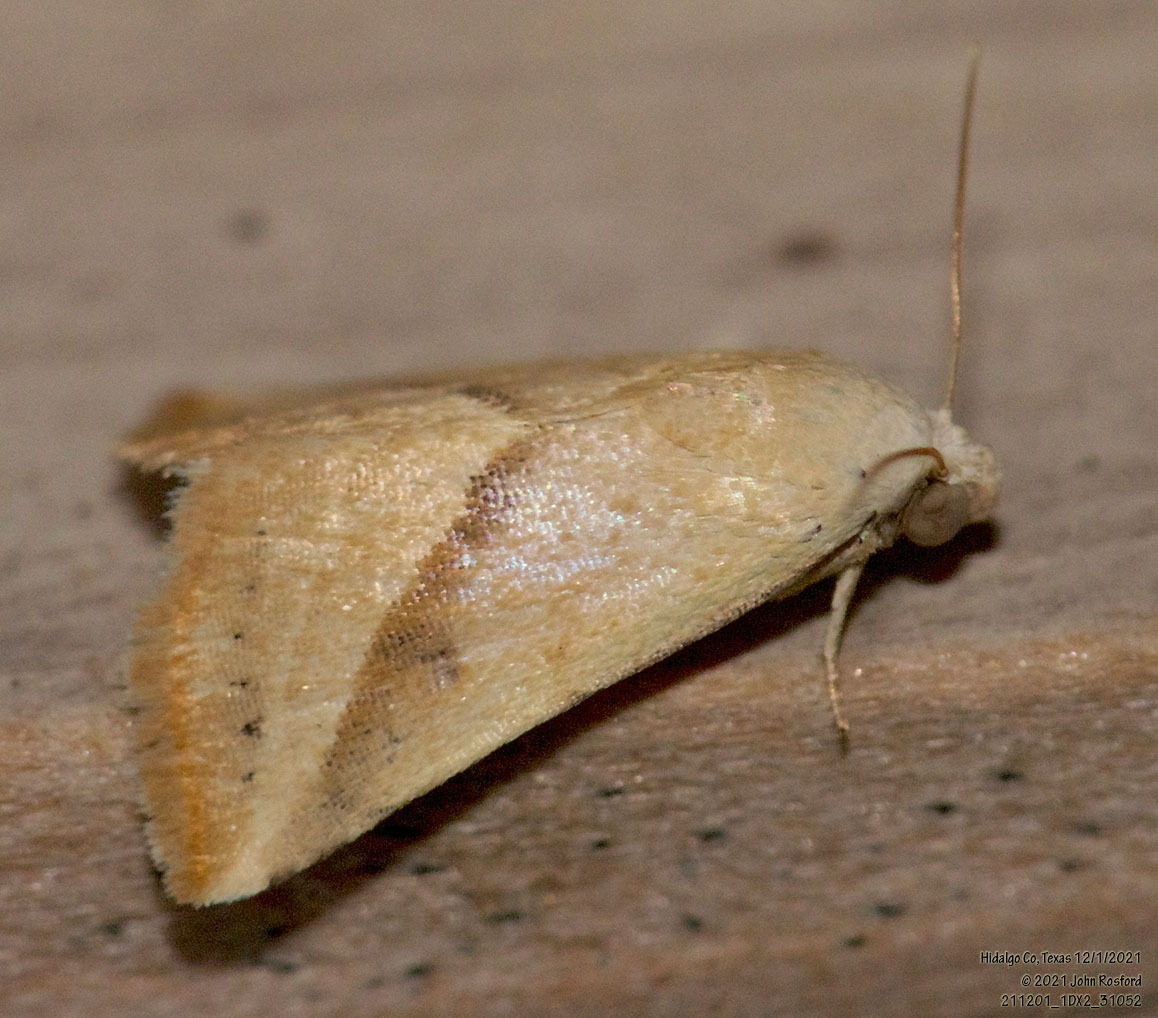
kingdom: Animalia
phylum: Arthropoda
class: Insecta
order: Lepidoptera
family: Noctuidae
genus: Eublemma
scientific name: Eublemma recta
